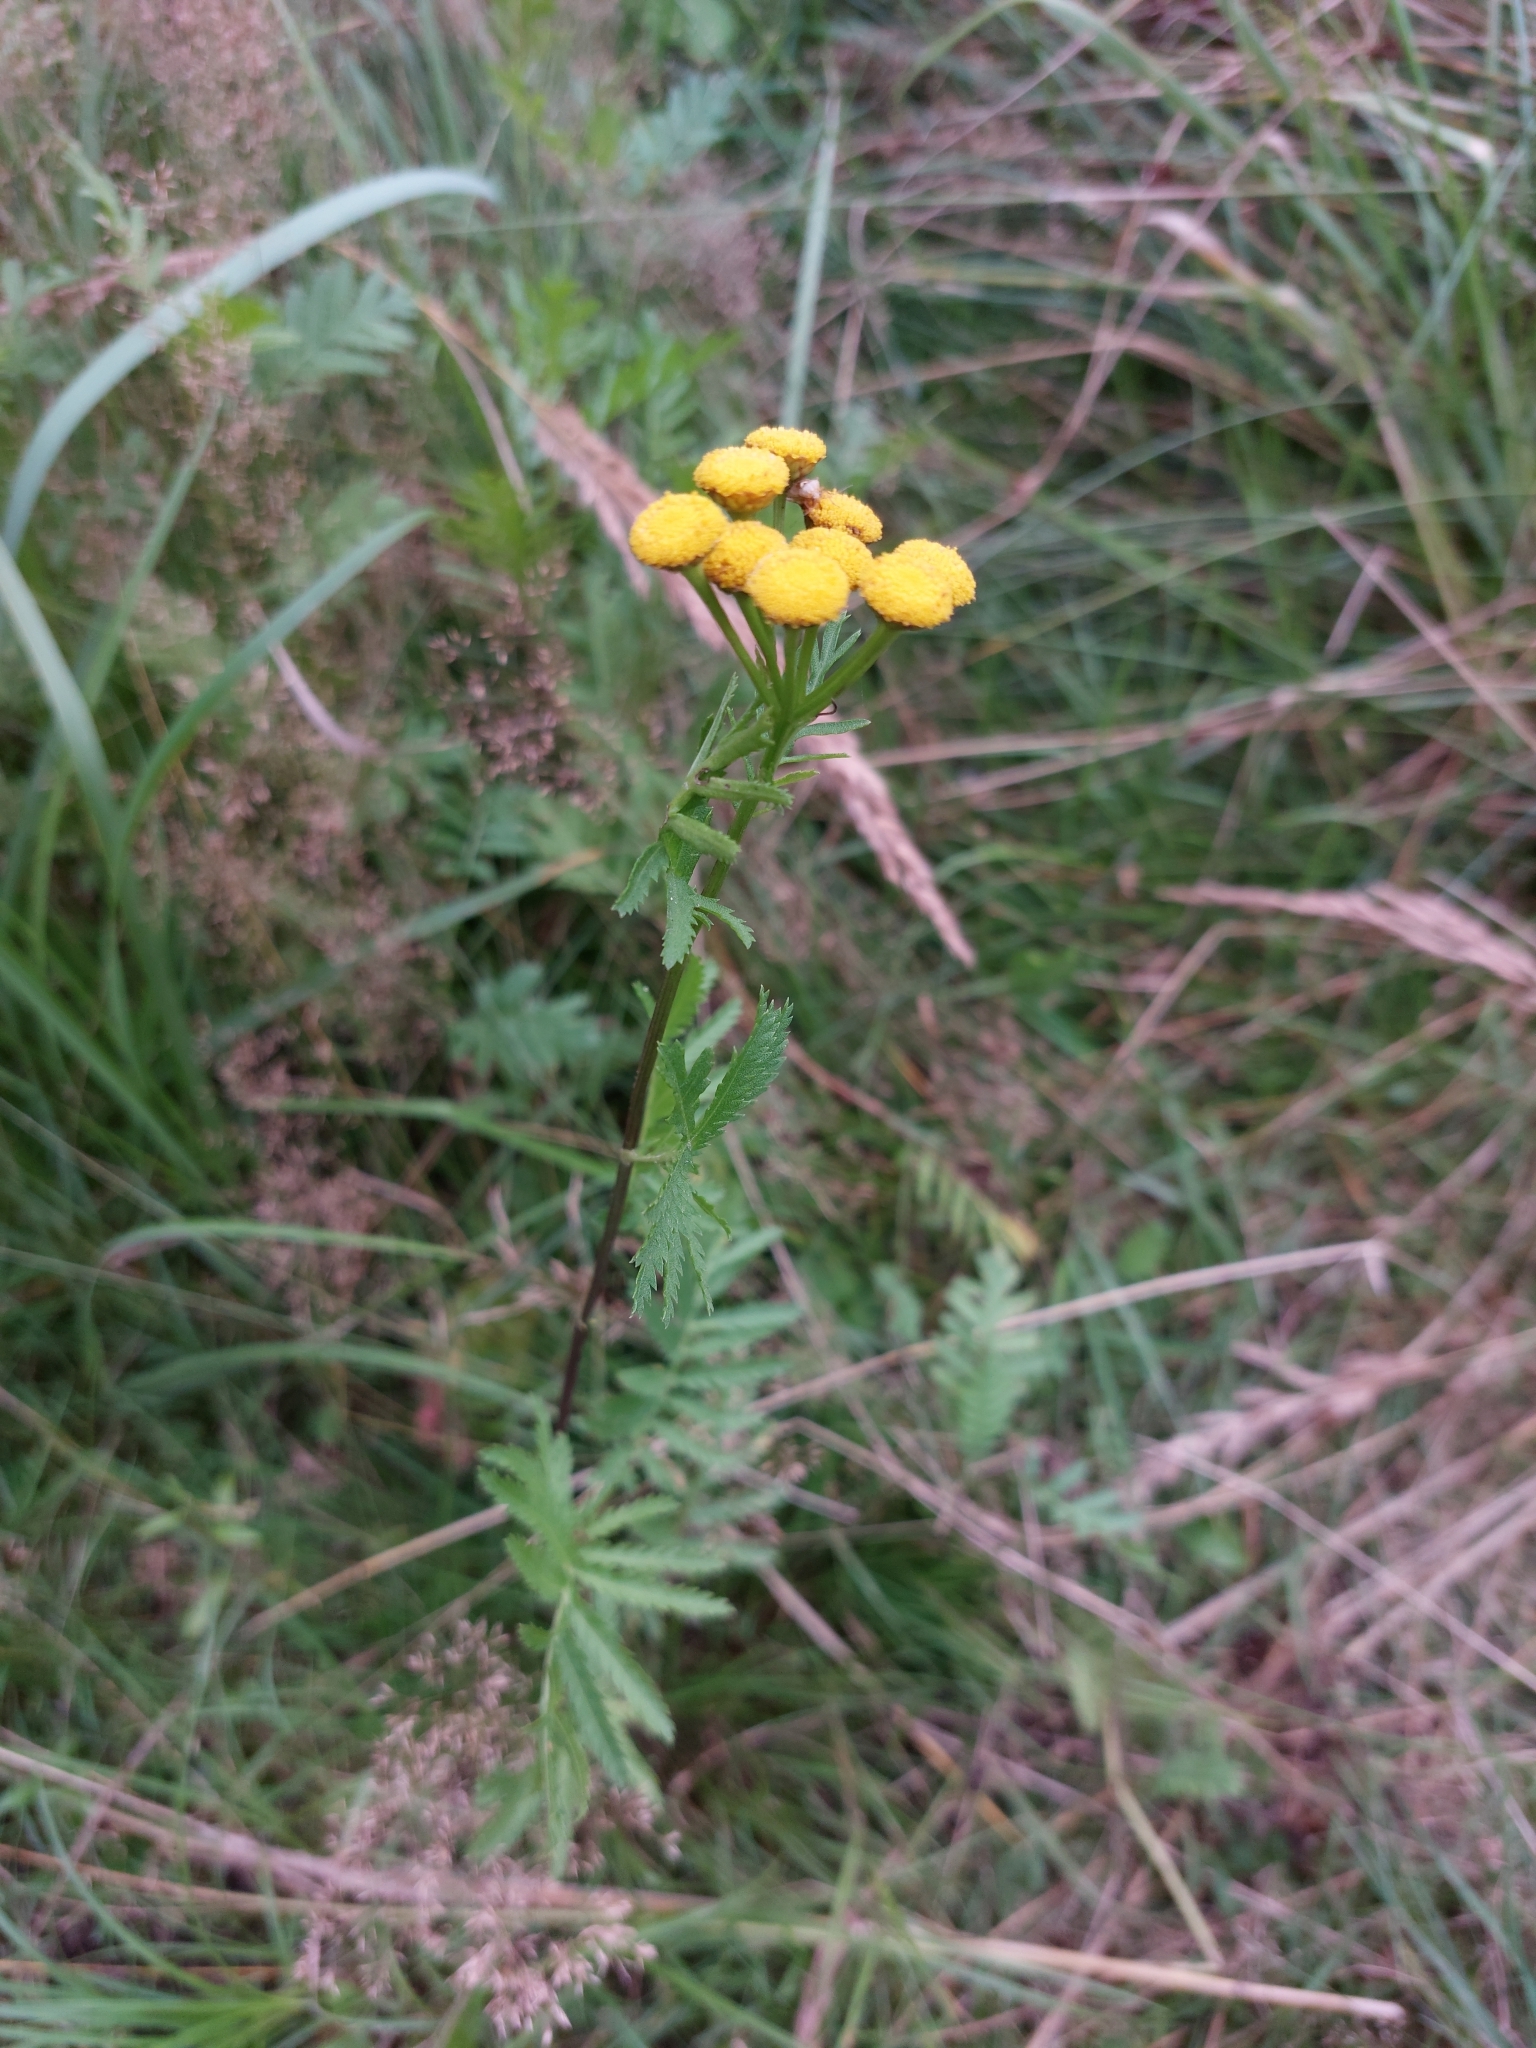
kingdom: Plantae
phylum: Tracheophyta
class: Magnoliopsida
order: Asterales
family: Asteraceae
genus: Tanacetum
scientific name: Tanacetum vulgare
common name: Common tansy
